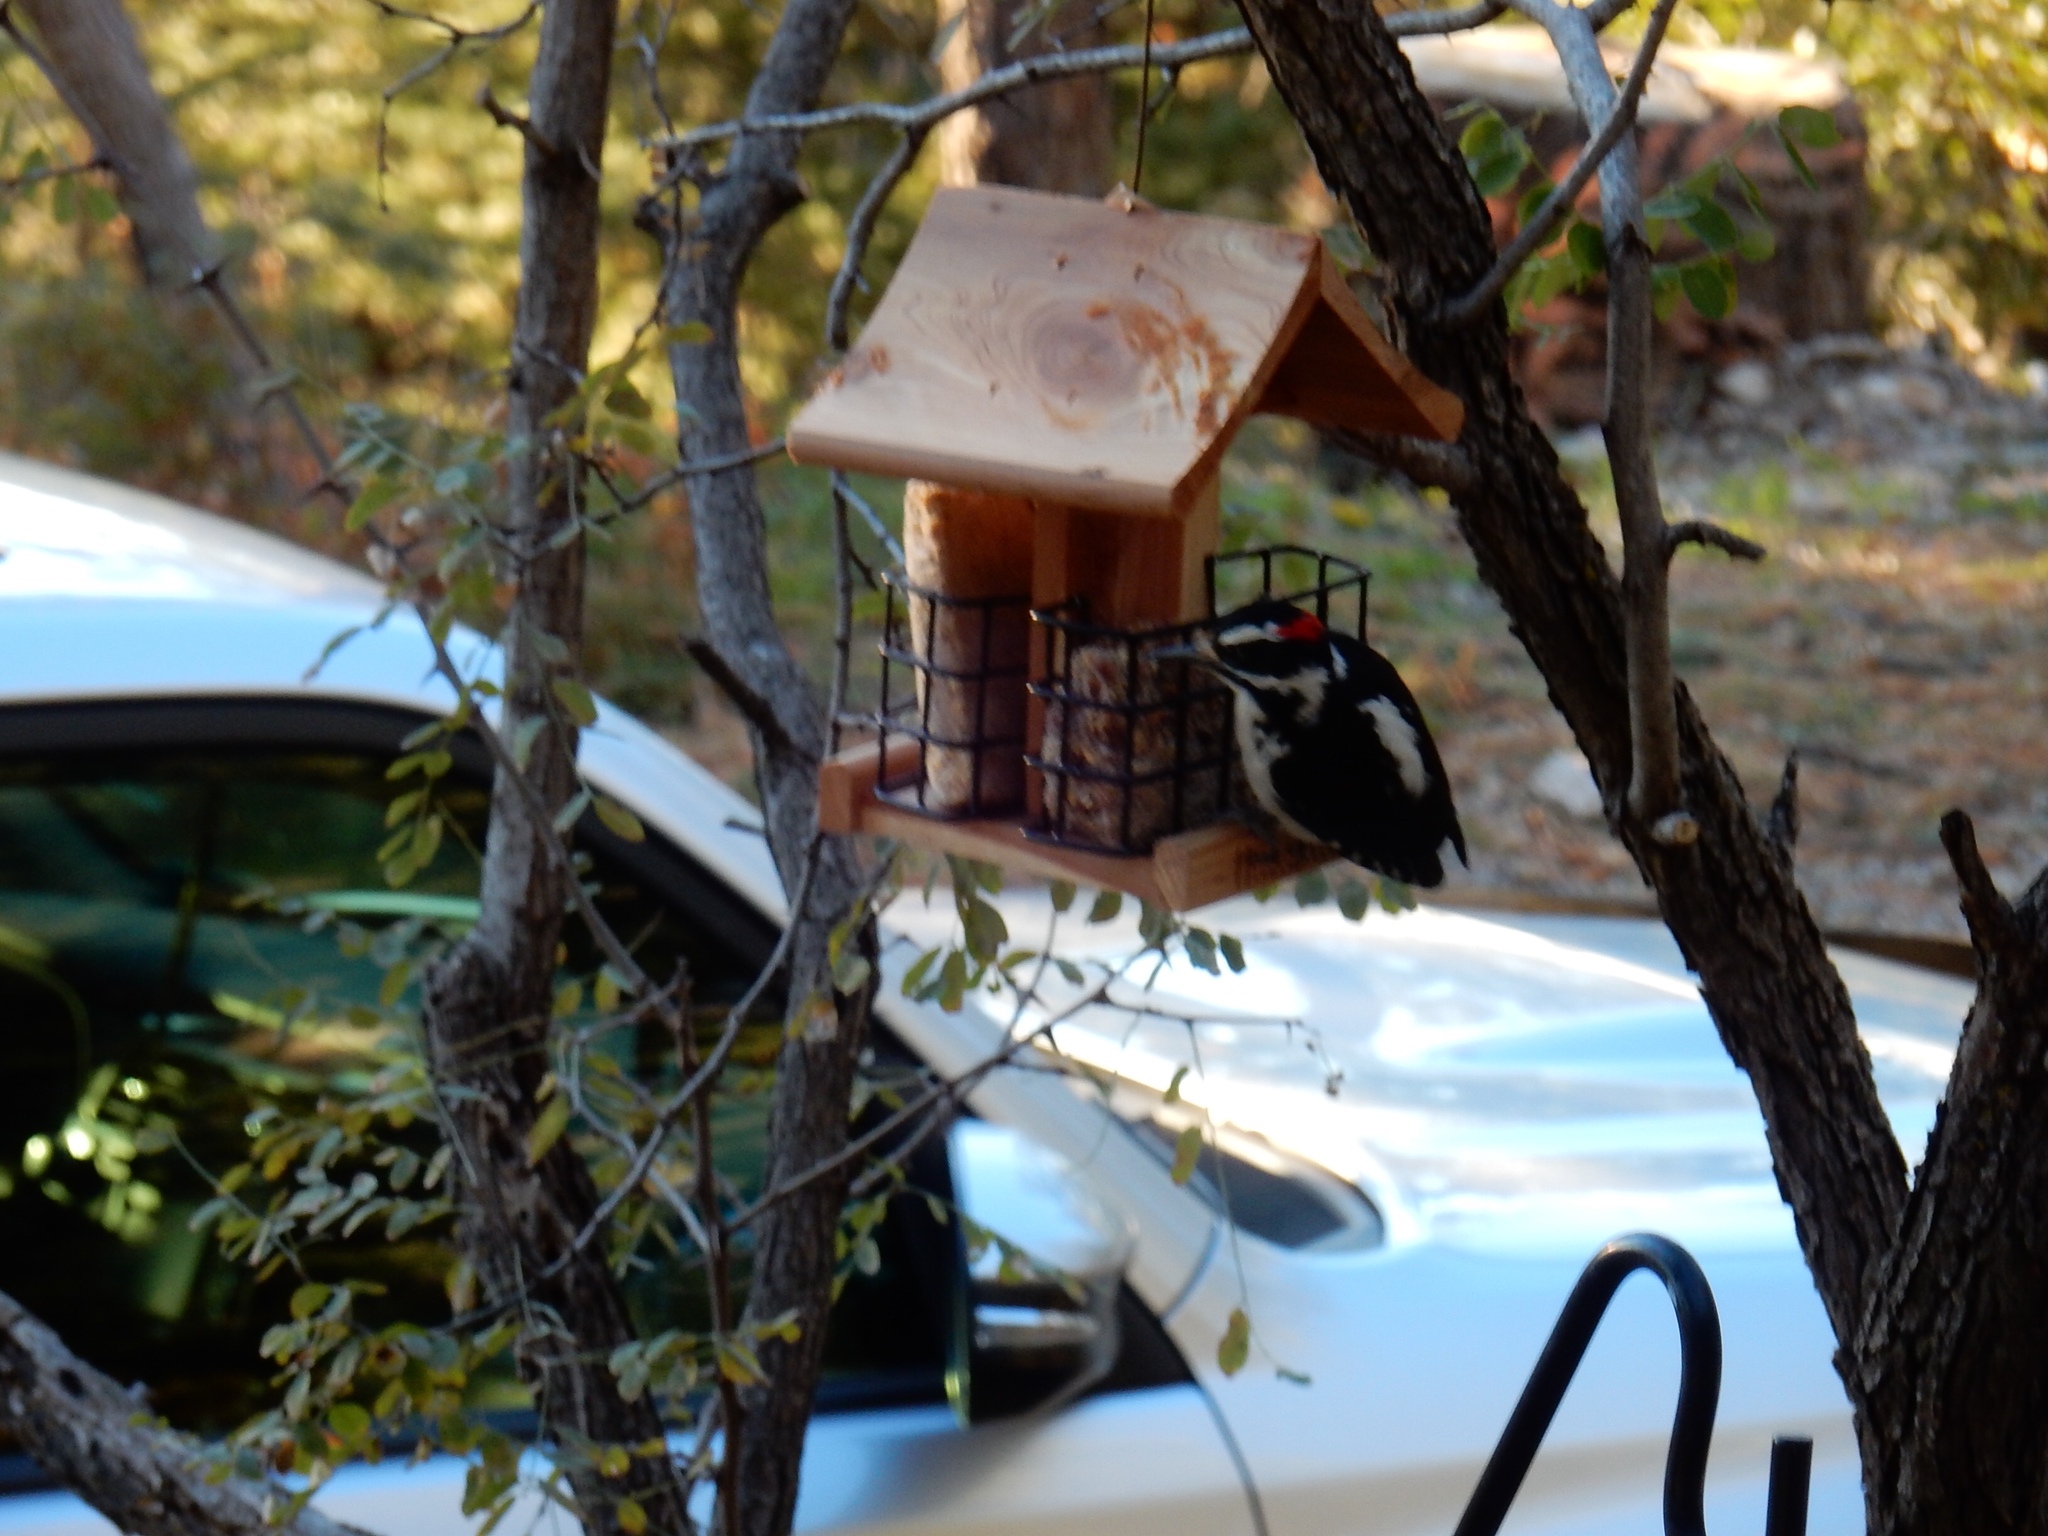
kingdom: Animalia
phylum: Chordata
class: Aves
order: Piciformes
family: Picidae
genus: Leuconotopicus
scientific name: Leuconotopicus villosus
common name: Hairy woodpecker
